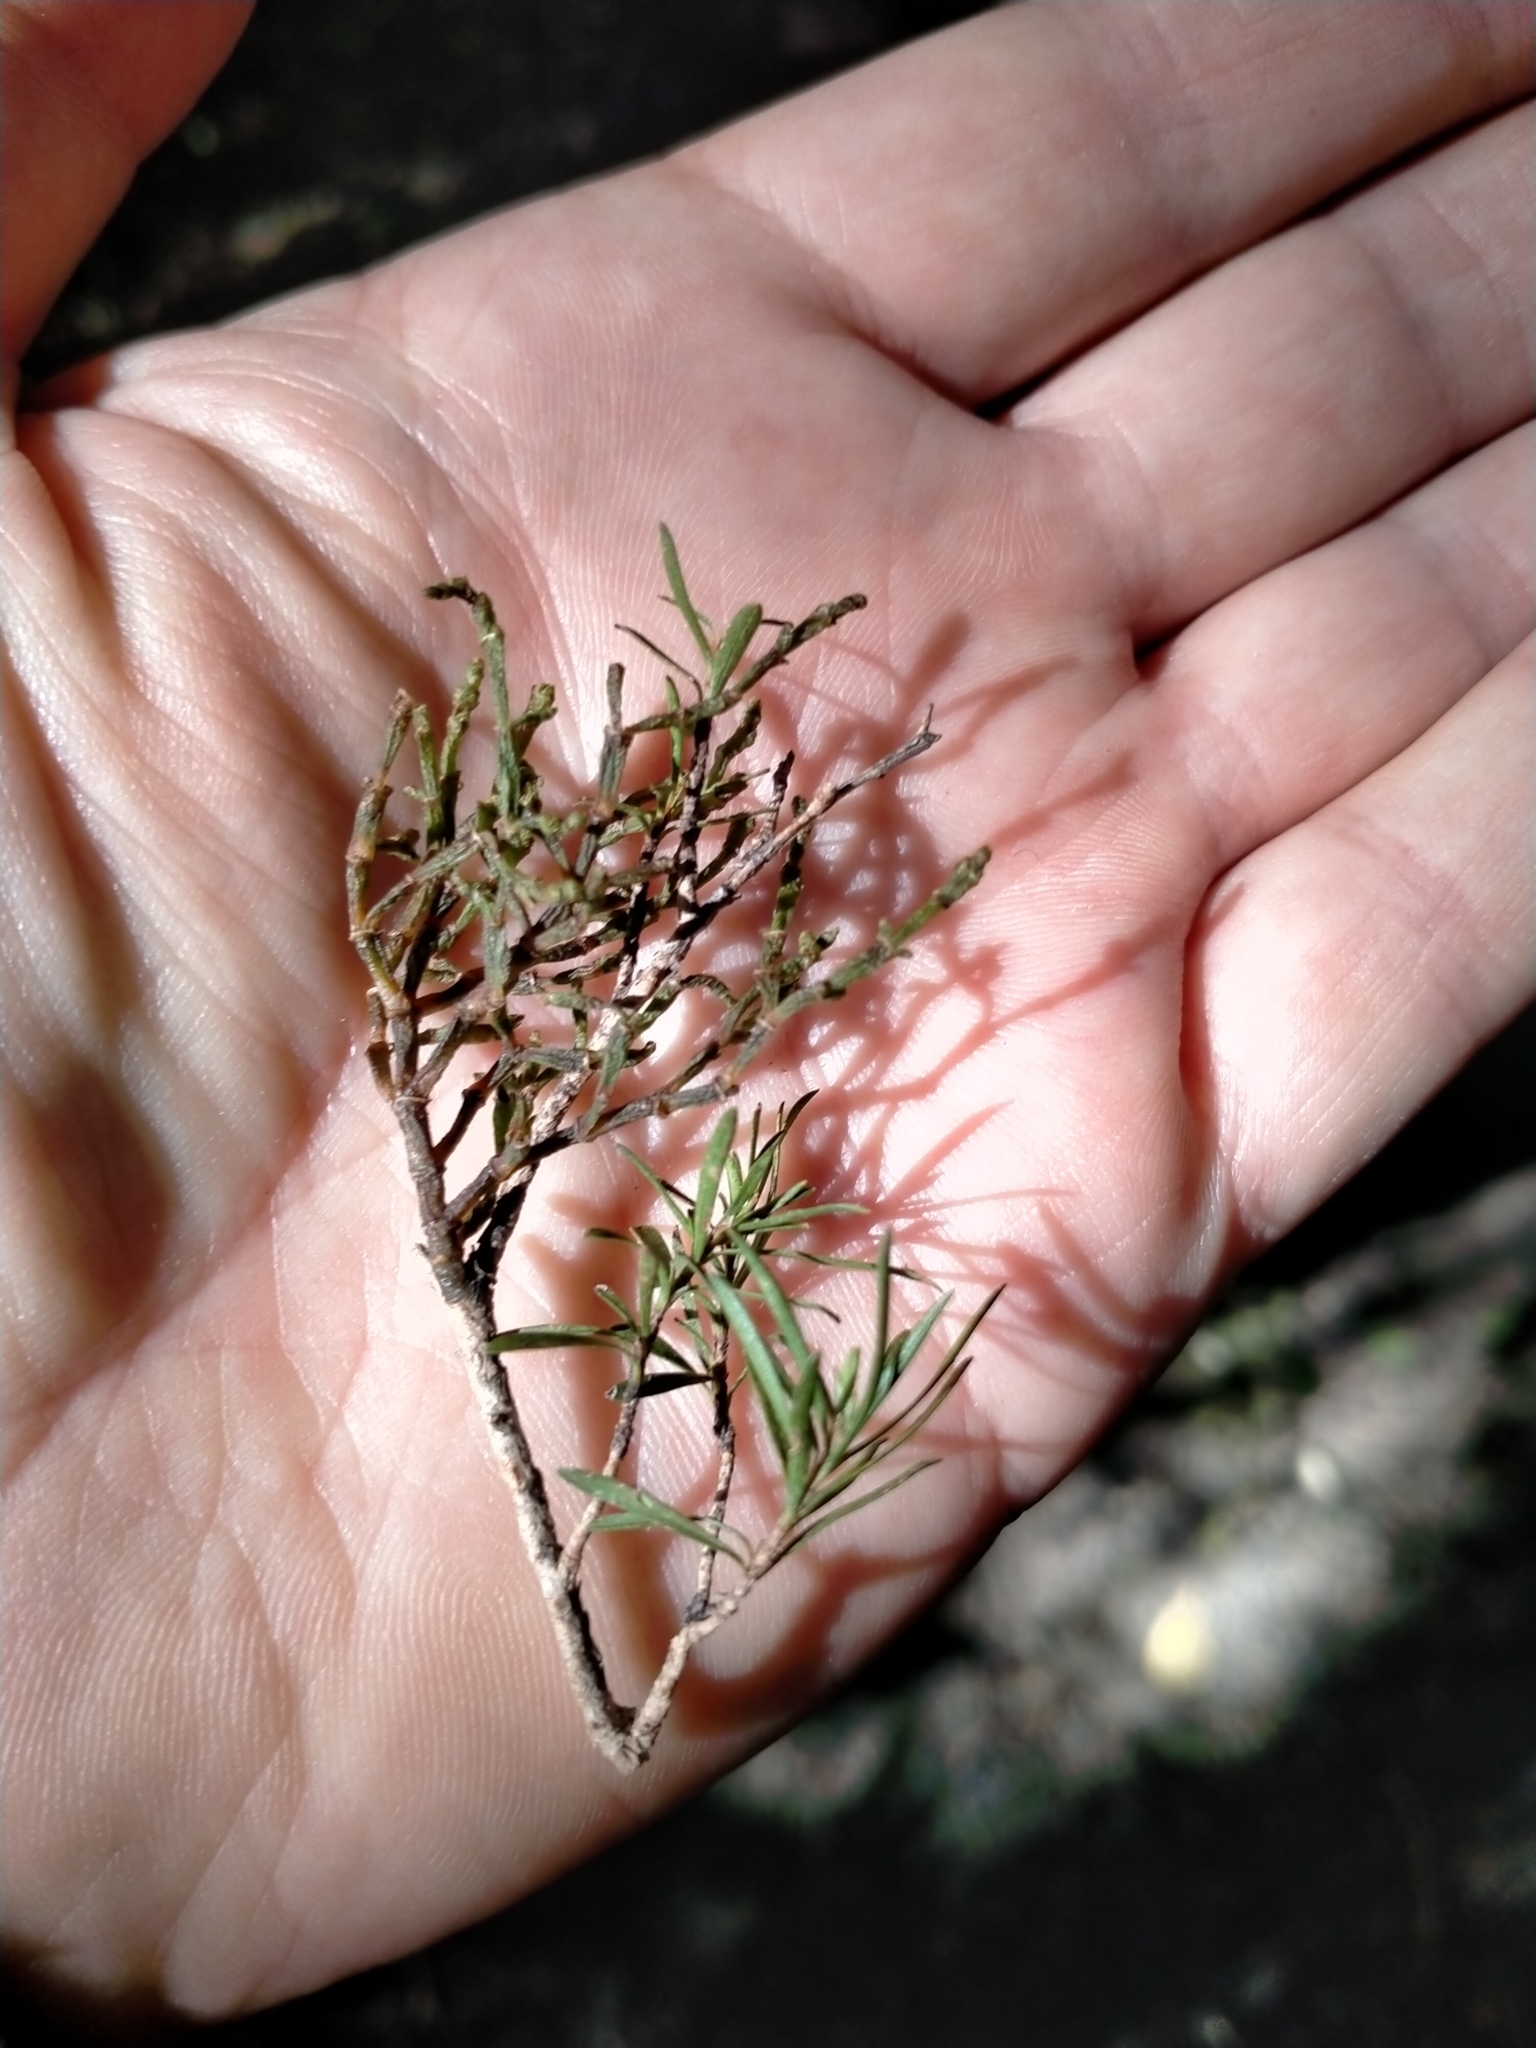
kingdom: Plantae
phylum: Tracheophyta
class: Magnoliopsida
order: Santalales
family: Viscaceae
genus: Korthalsella
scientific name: Korthalsella salicornioides
